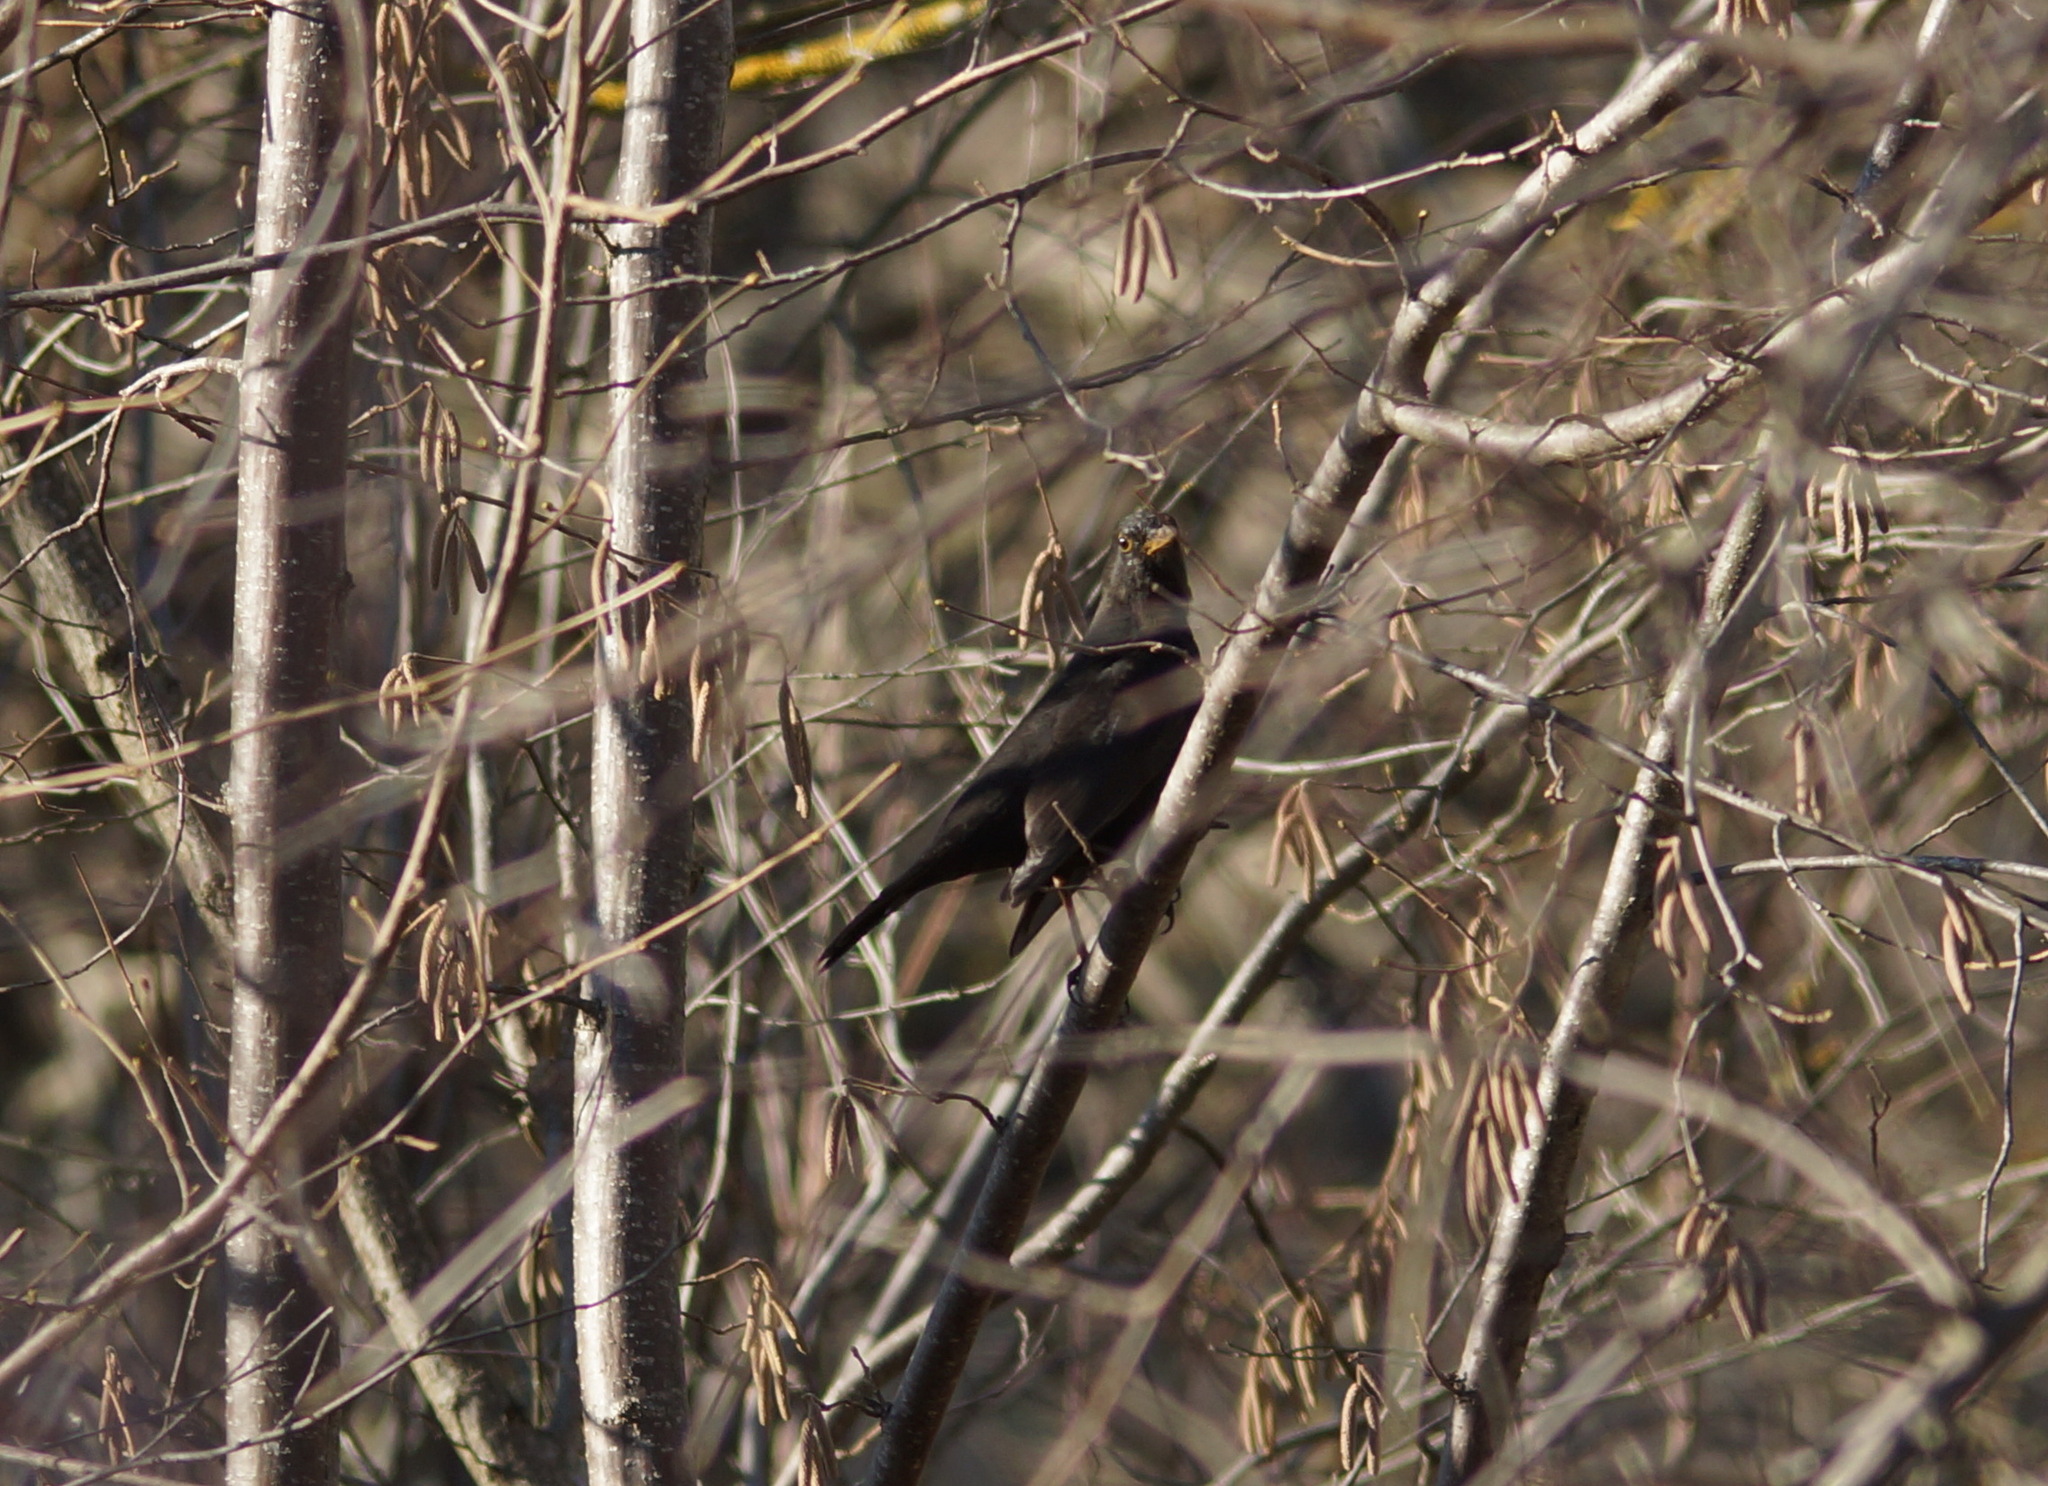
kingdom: Animalia
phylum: Chordata
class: Aves
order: Passeriformes
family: Turdidae
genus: Turdus
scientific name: Turdus merula
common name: Common blackbird
